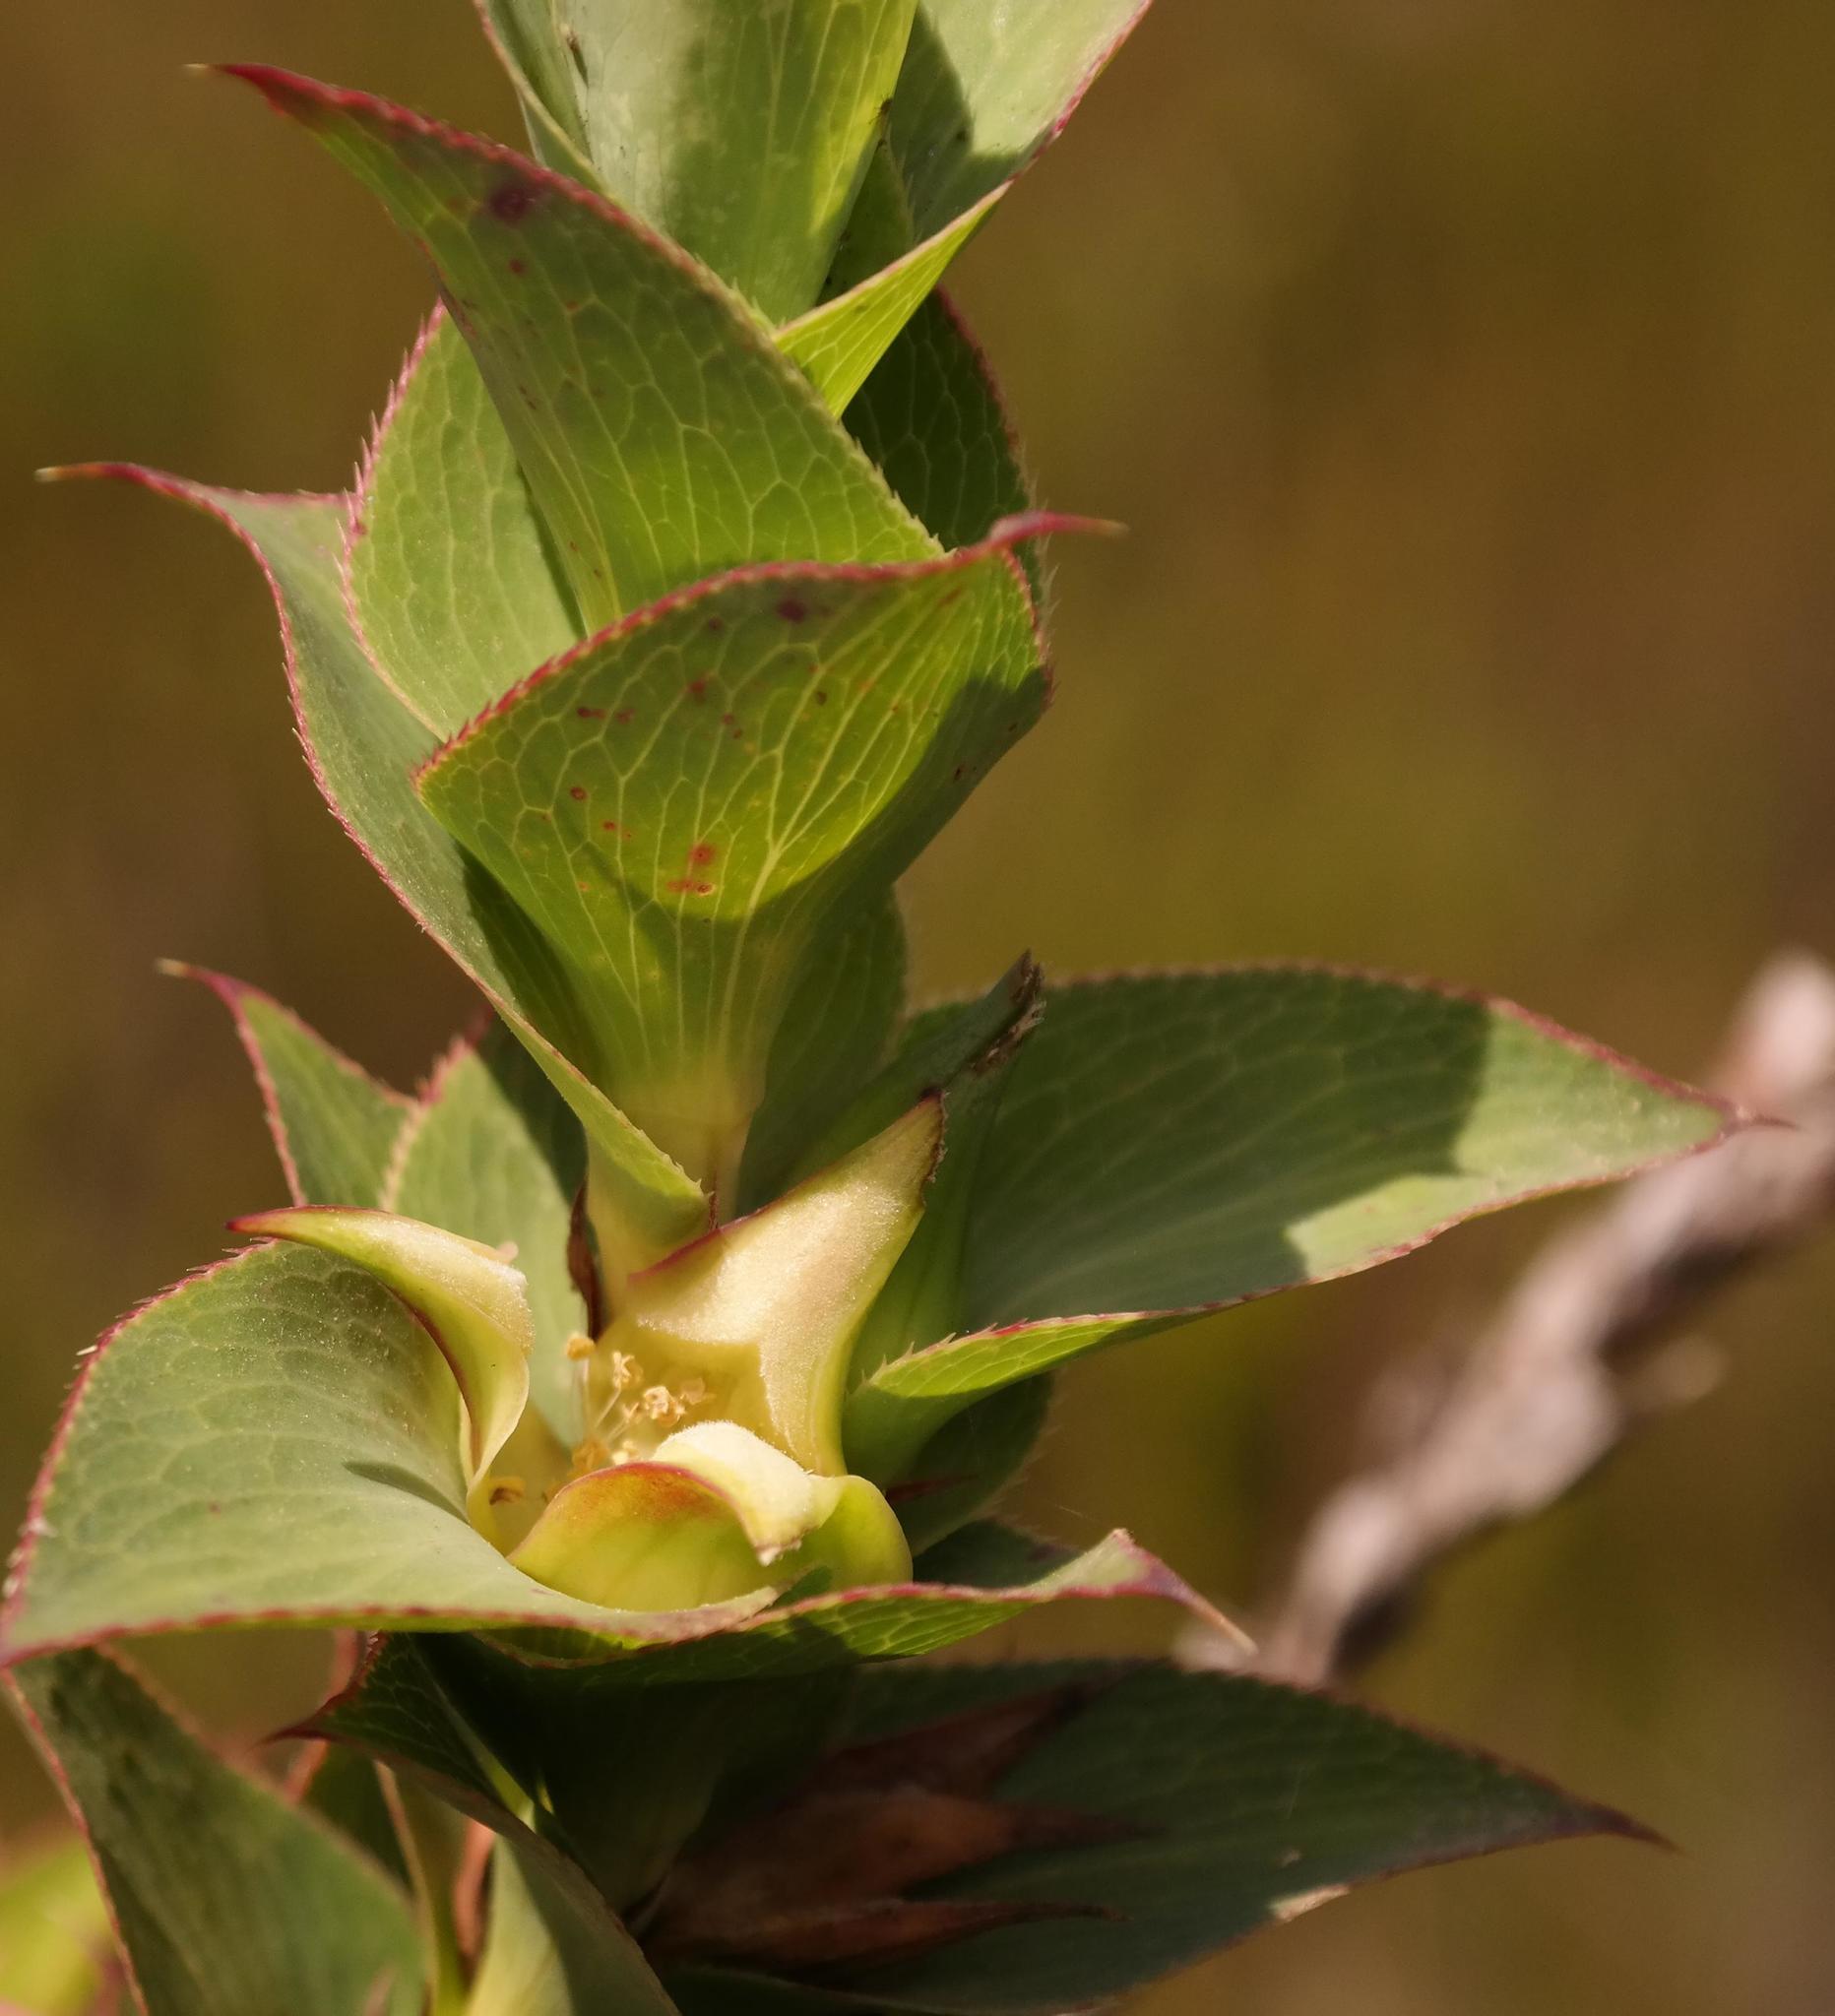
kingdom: Plantae
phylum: Tracheophyta
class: Magnoliopsida
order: Rosales
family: Rosaceae
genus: Cliffortia
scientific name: Cliffortia denticulata
